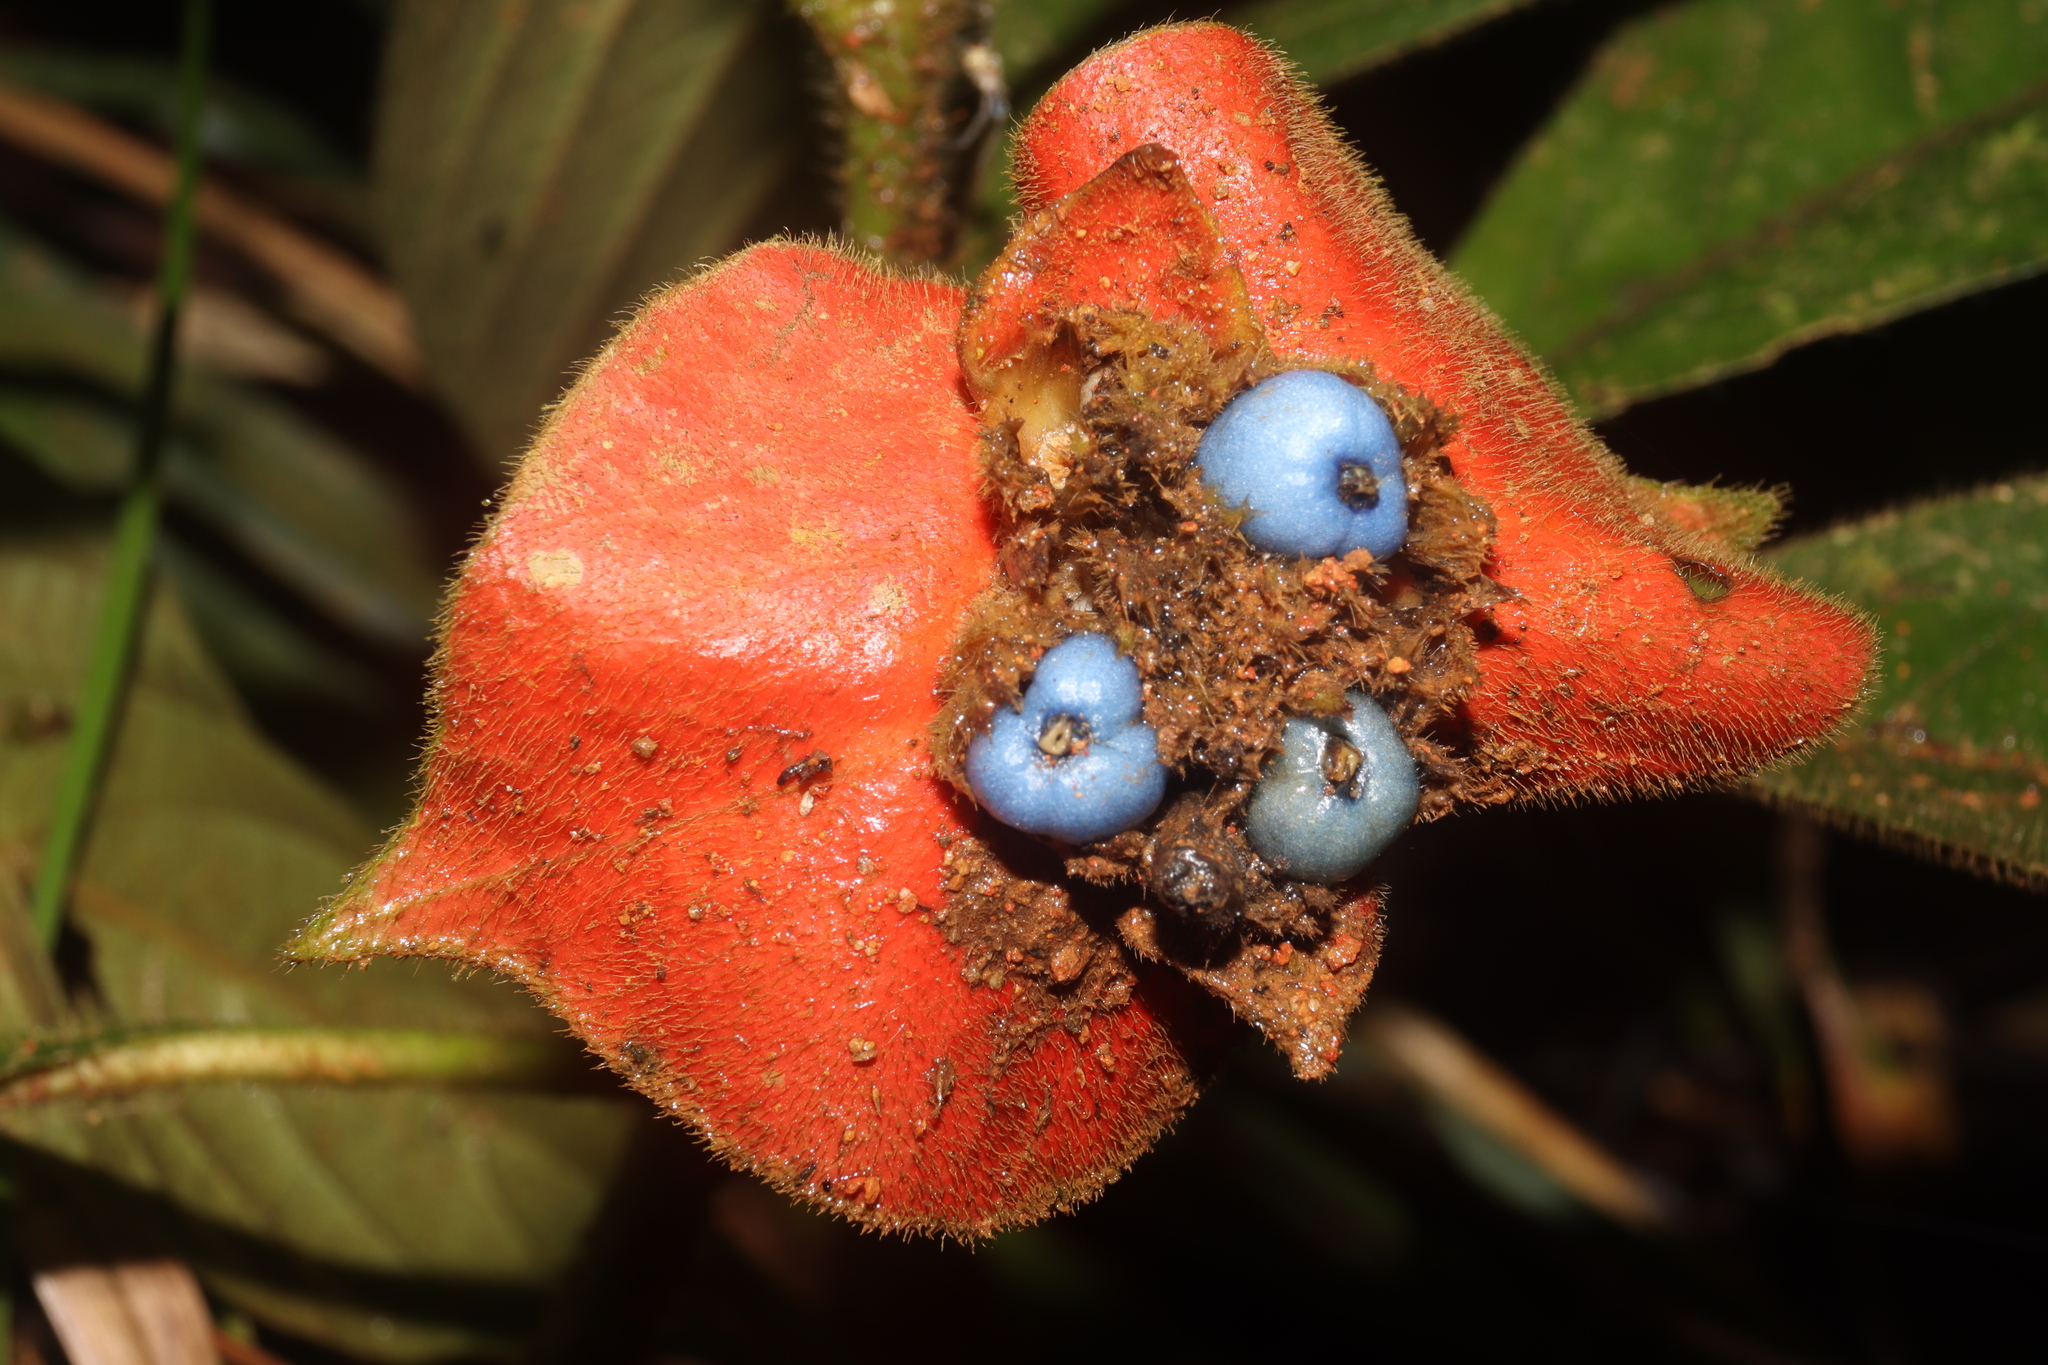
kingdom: Plantae
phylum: Tracheophyta
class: Magnoliopsida
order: Gentianales
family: Rubiaceae
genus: Palicourea
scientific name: Palicourea tomentosa
